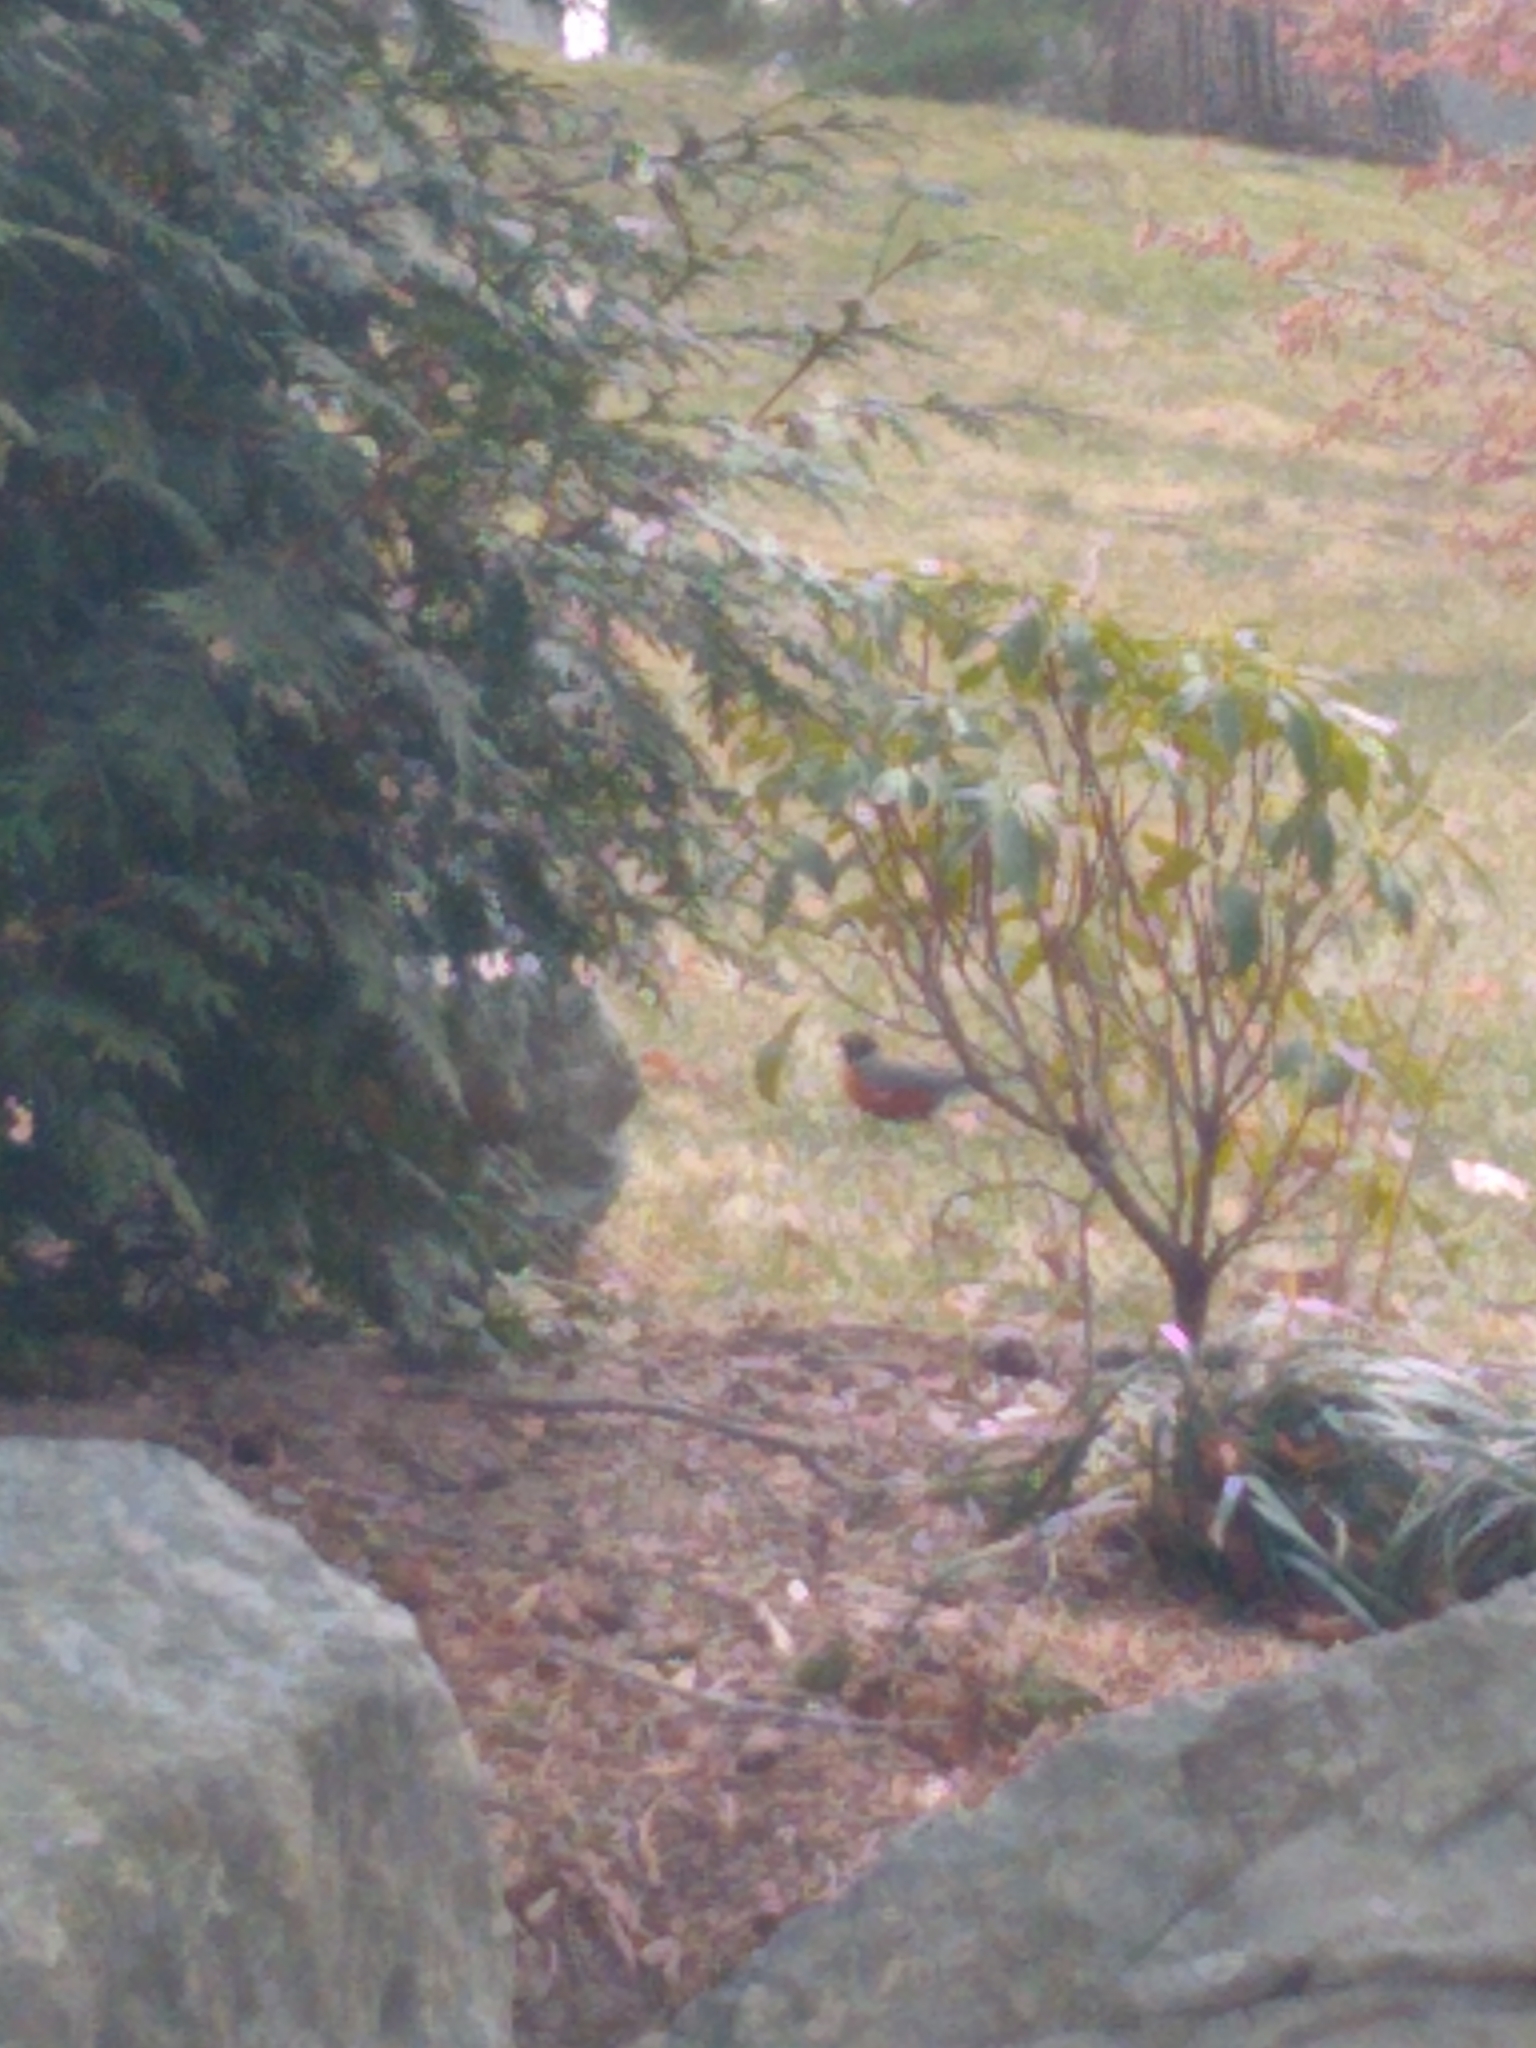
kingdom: Animalia
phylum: Chordata
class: Aves
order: Passeriformes
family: Turdidae
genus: Turdus
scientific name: Turdus migratorius
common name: American robin
